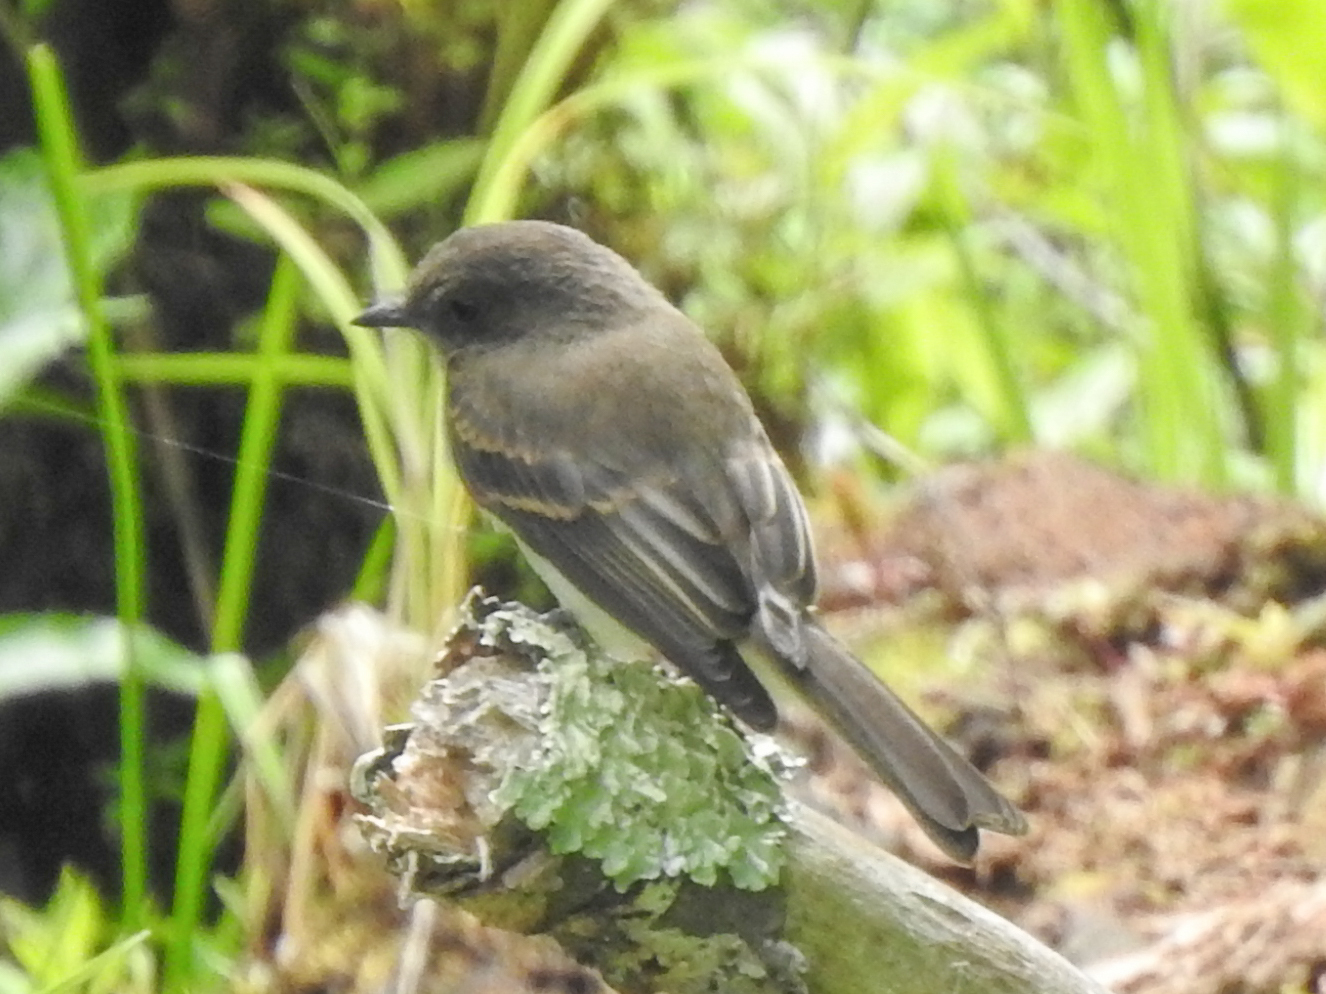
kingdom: Animalia
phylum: Chordata
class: Aves
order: Passeriformes
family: Tyrannidae
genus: Sayornis
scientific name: Sayornis phoebe
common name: Eastern phoebe
